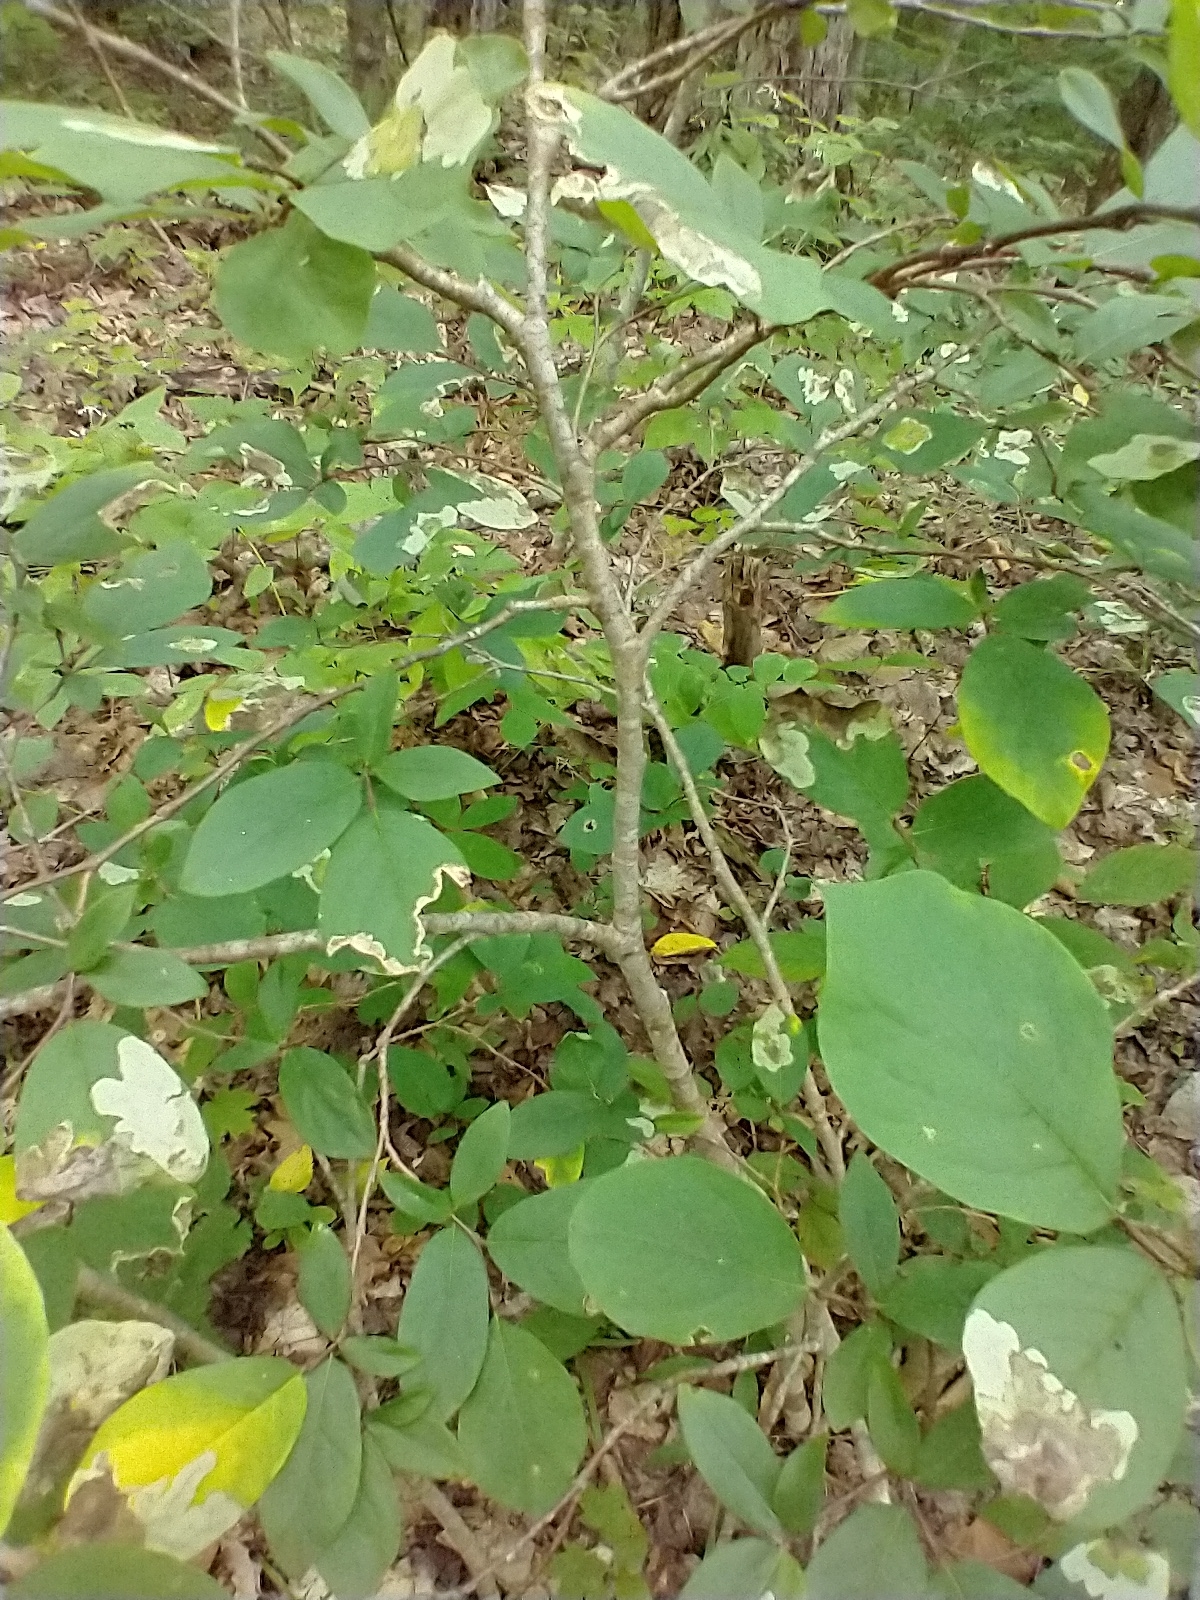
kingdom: Plantae
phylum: Tracheophyta
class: Magnoliopsida
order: Malvales
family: Thymelaeaceae
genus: Dirca
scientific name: Dirca palustris
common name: Leatherwood
